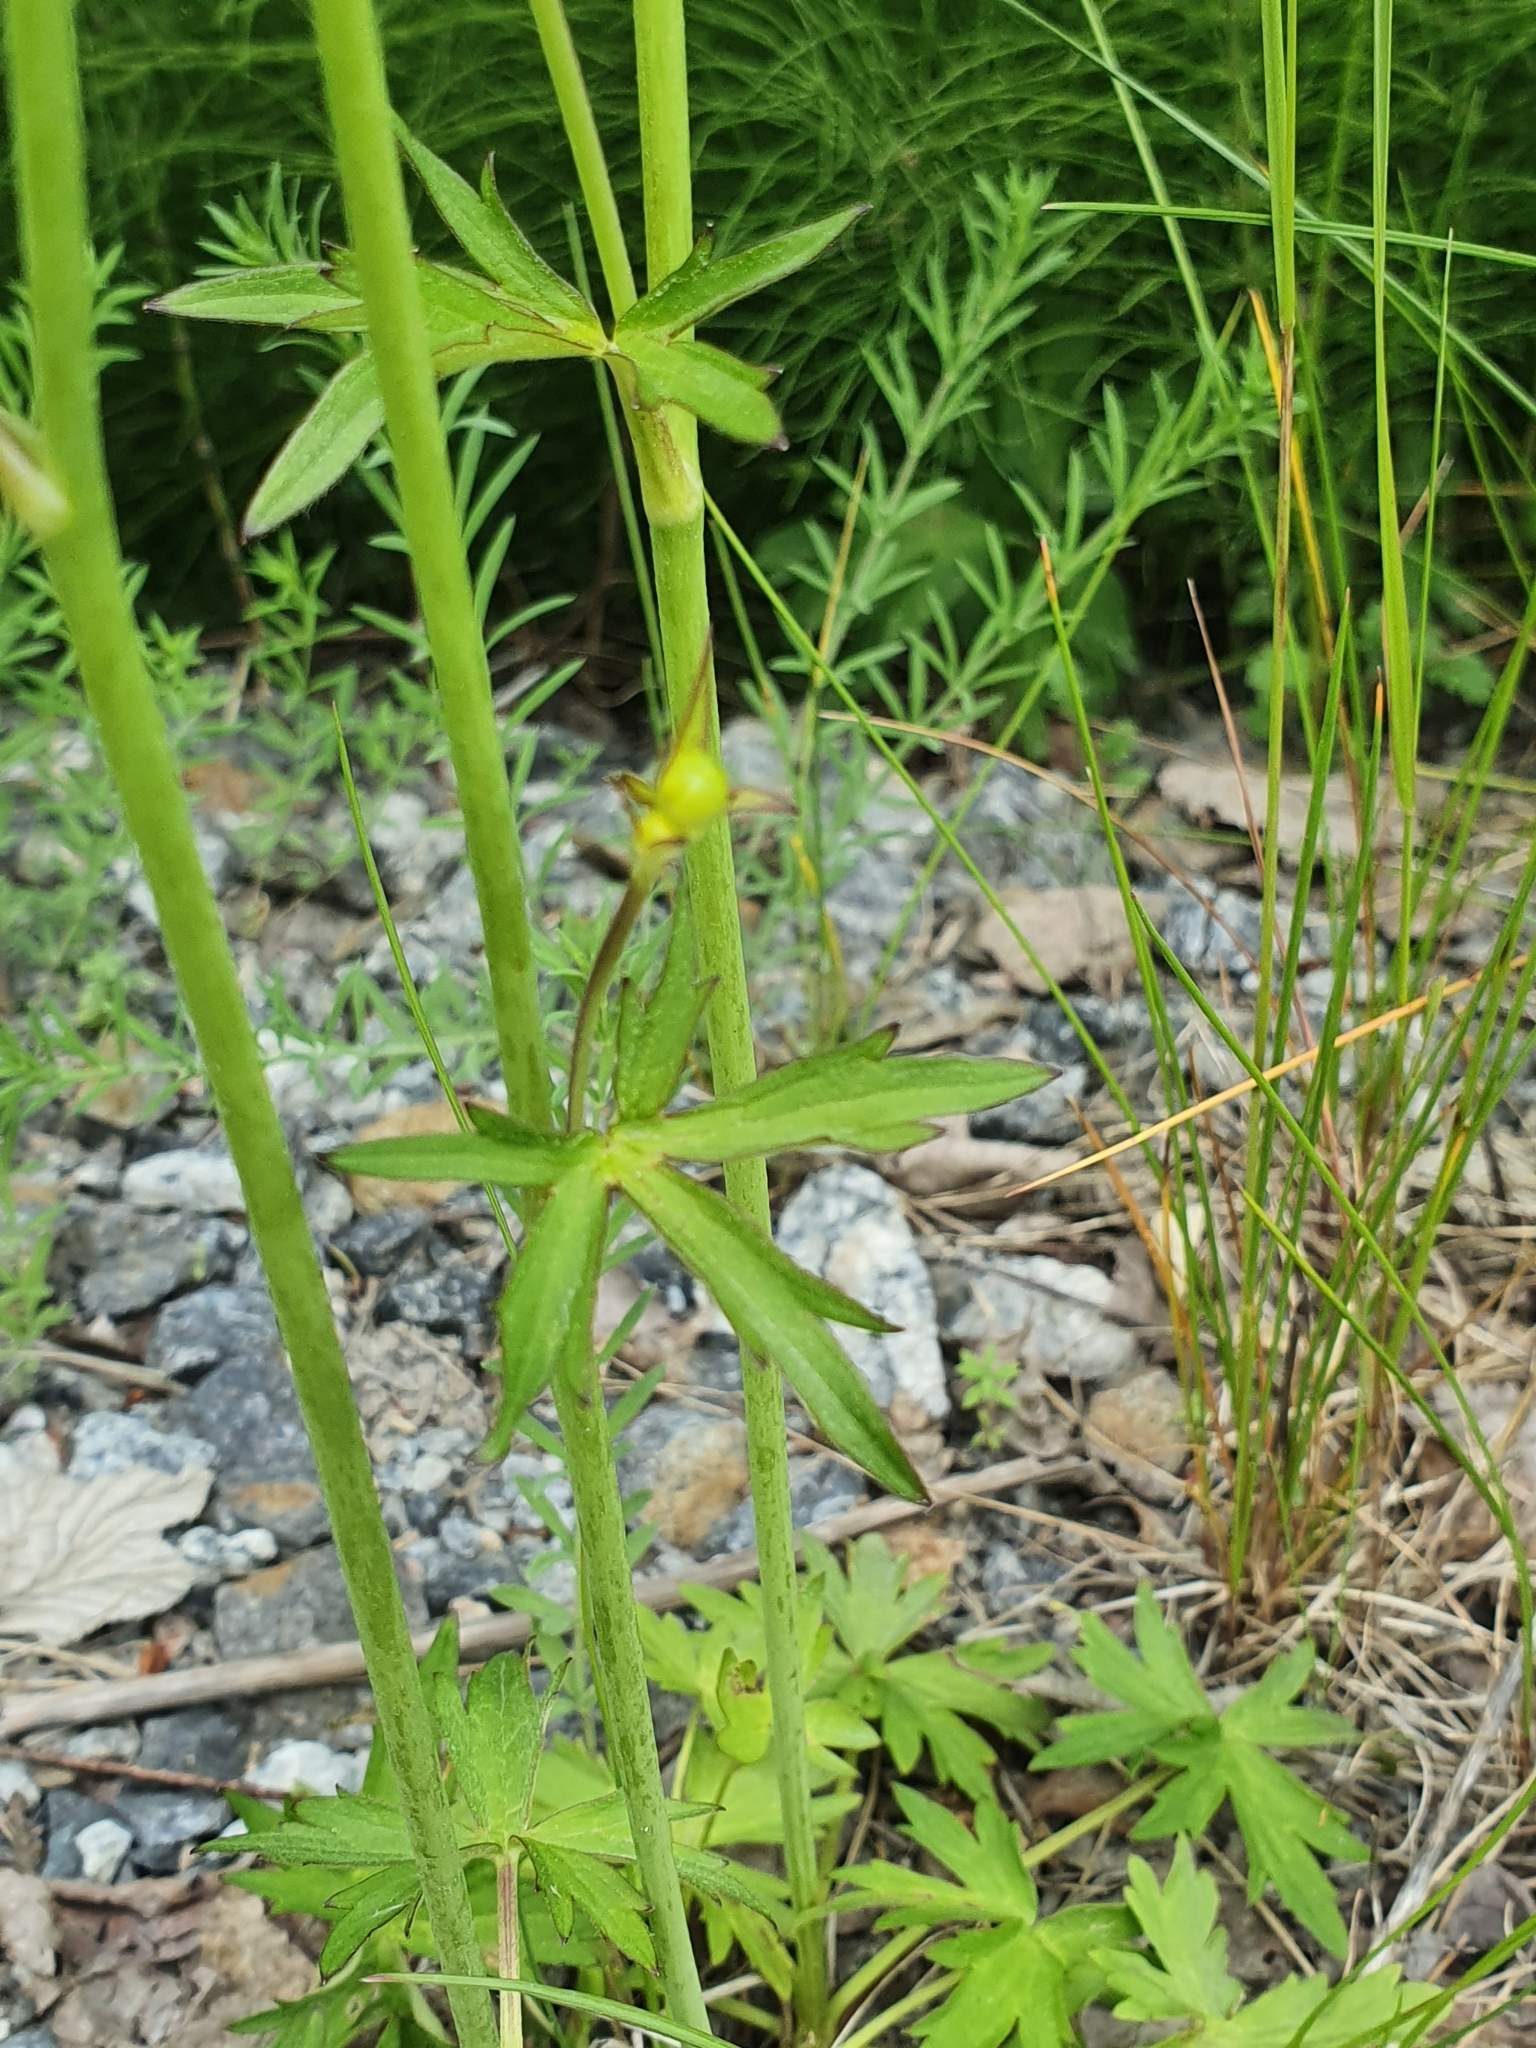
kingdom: Plantae
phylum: Tracheophyta
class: Magnoliopsida
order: Ranunculales
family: Ranunculaceae
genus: Ranunculus
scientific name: Ranunculus acris
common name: Meadow buttercup
